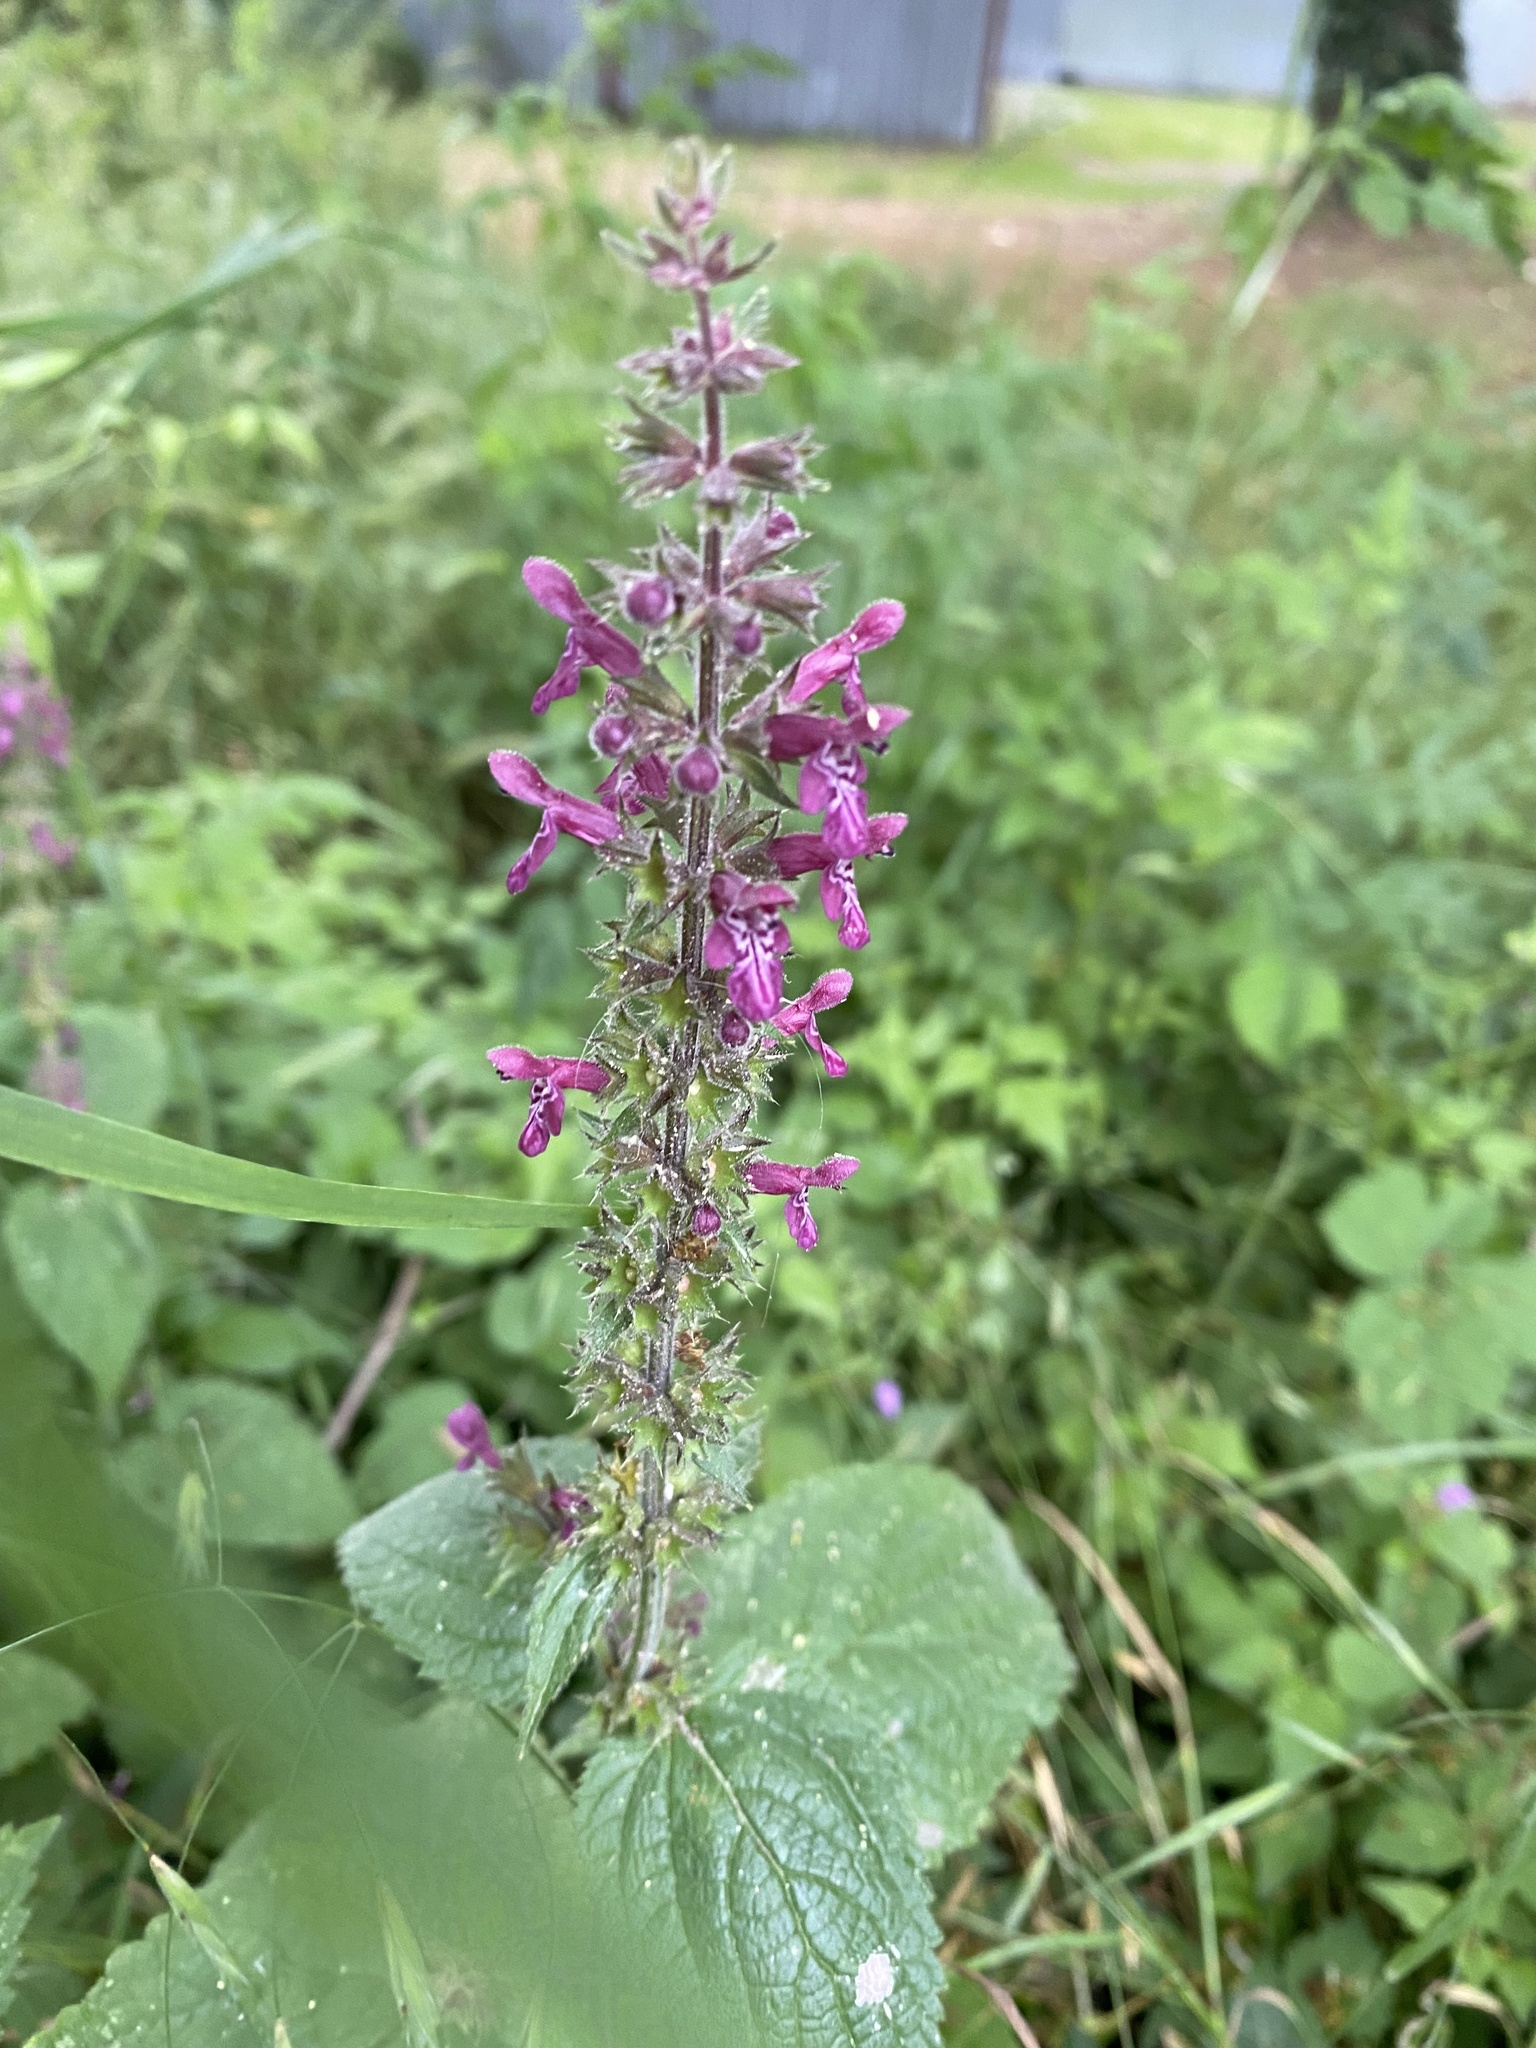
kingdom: Plantae
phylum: Tracheophyta
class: Magnoliopsida
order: Lamiales
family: Lamiaceae
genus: Stachys
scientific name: Stachys sylvatica
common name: Hedge woundwort
